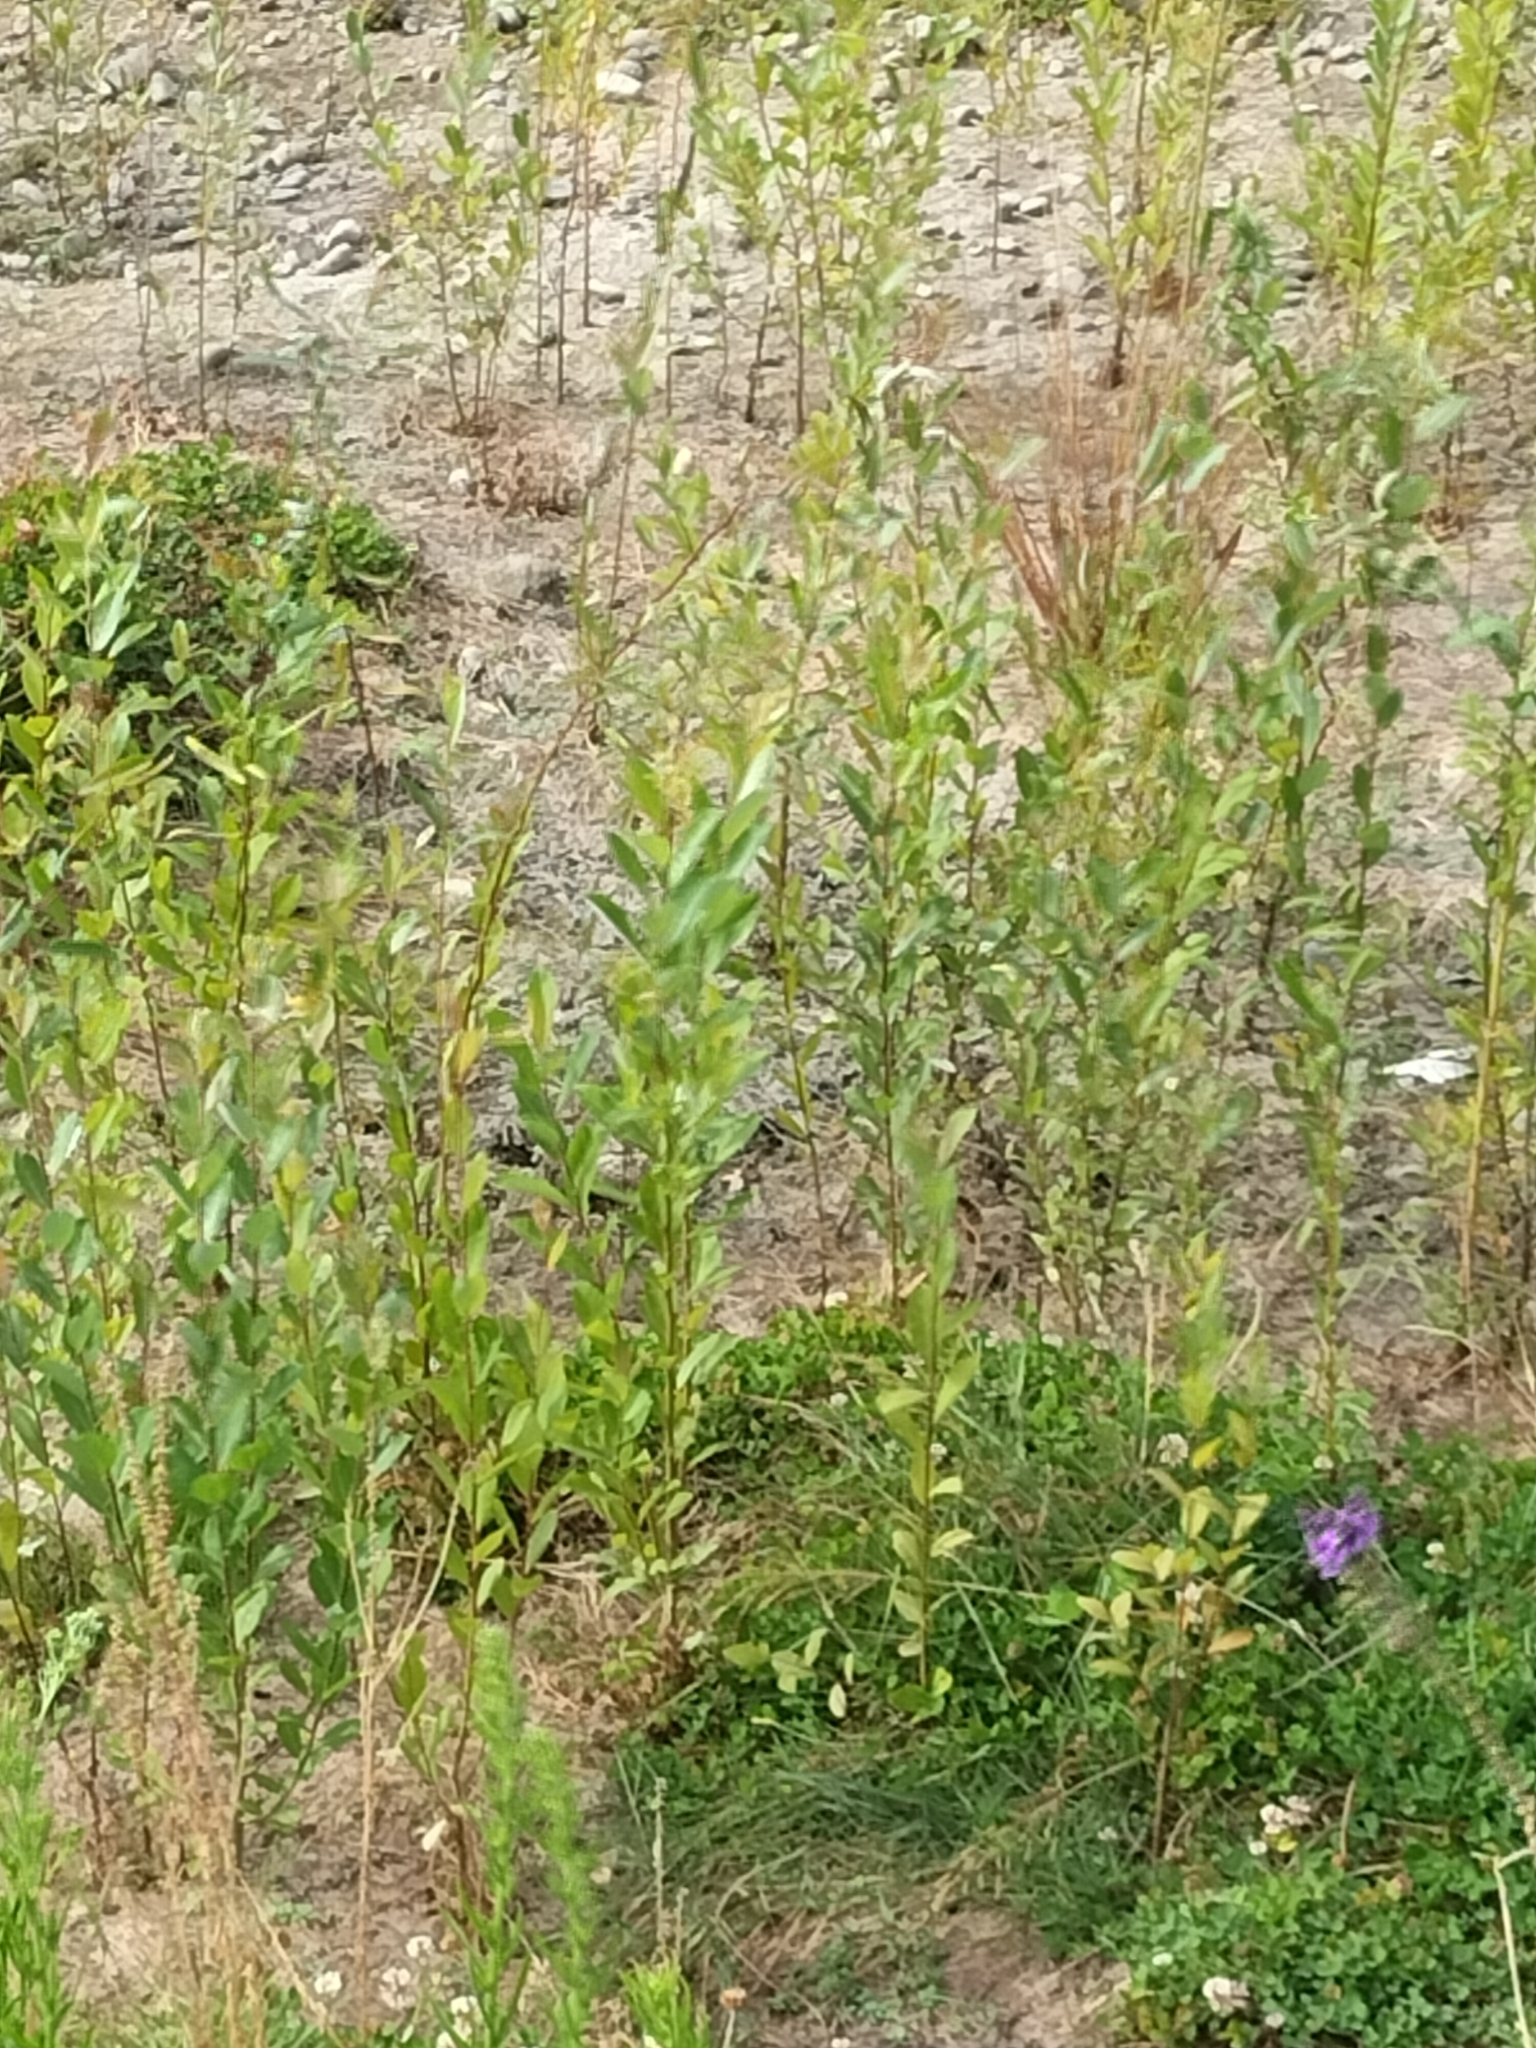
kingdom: Plantae
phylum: Tracheophyta
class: Magnoliopsida
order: Malpighiales
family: Salicaceae
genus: Salix
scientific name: Salix cinerea
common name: Common sallow
